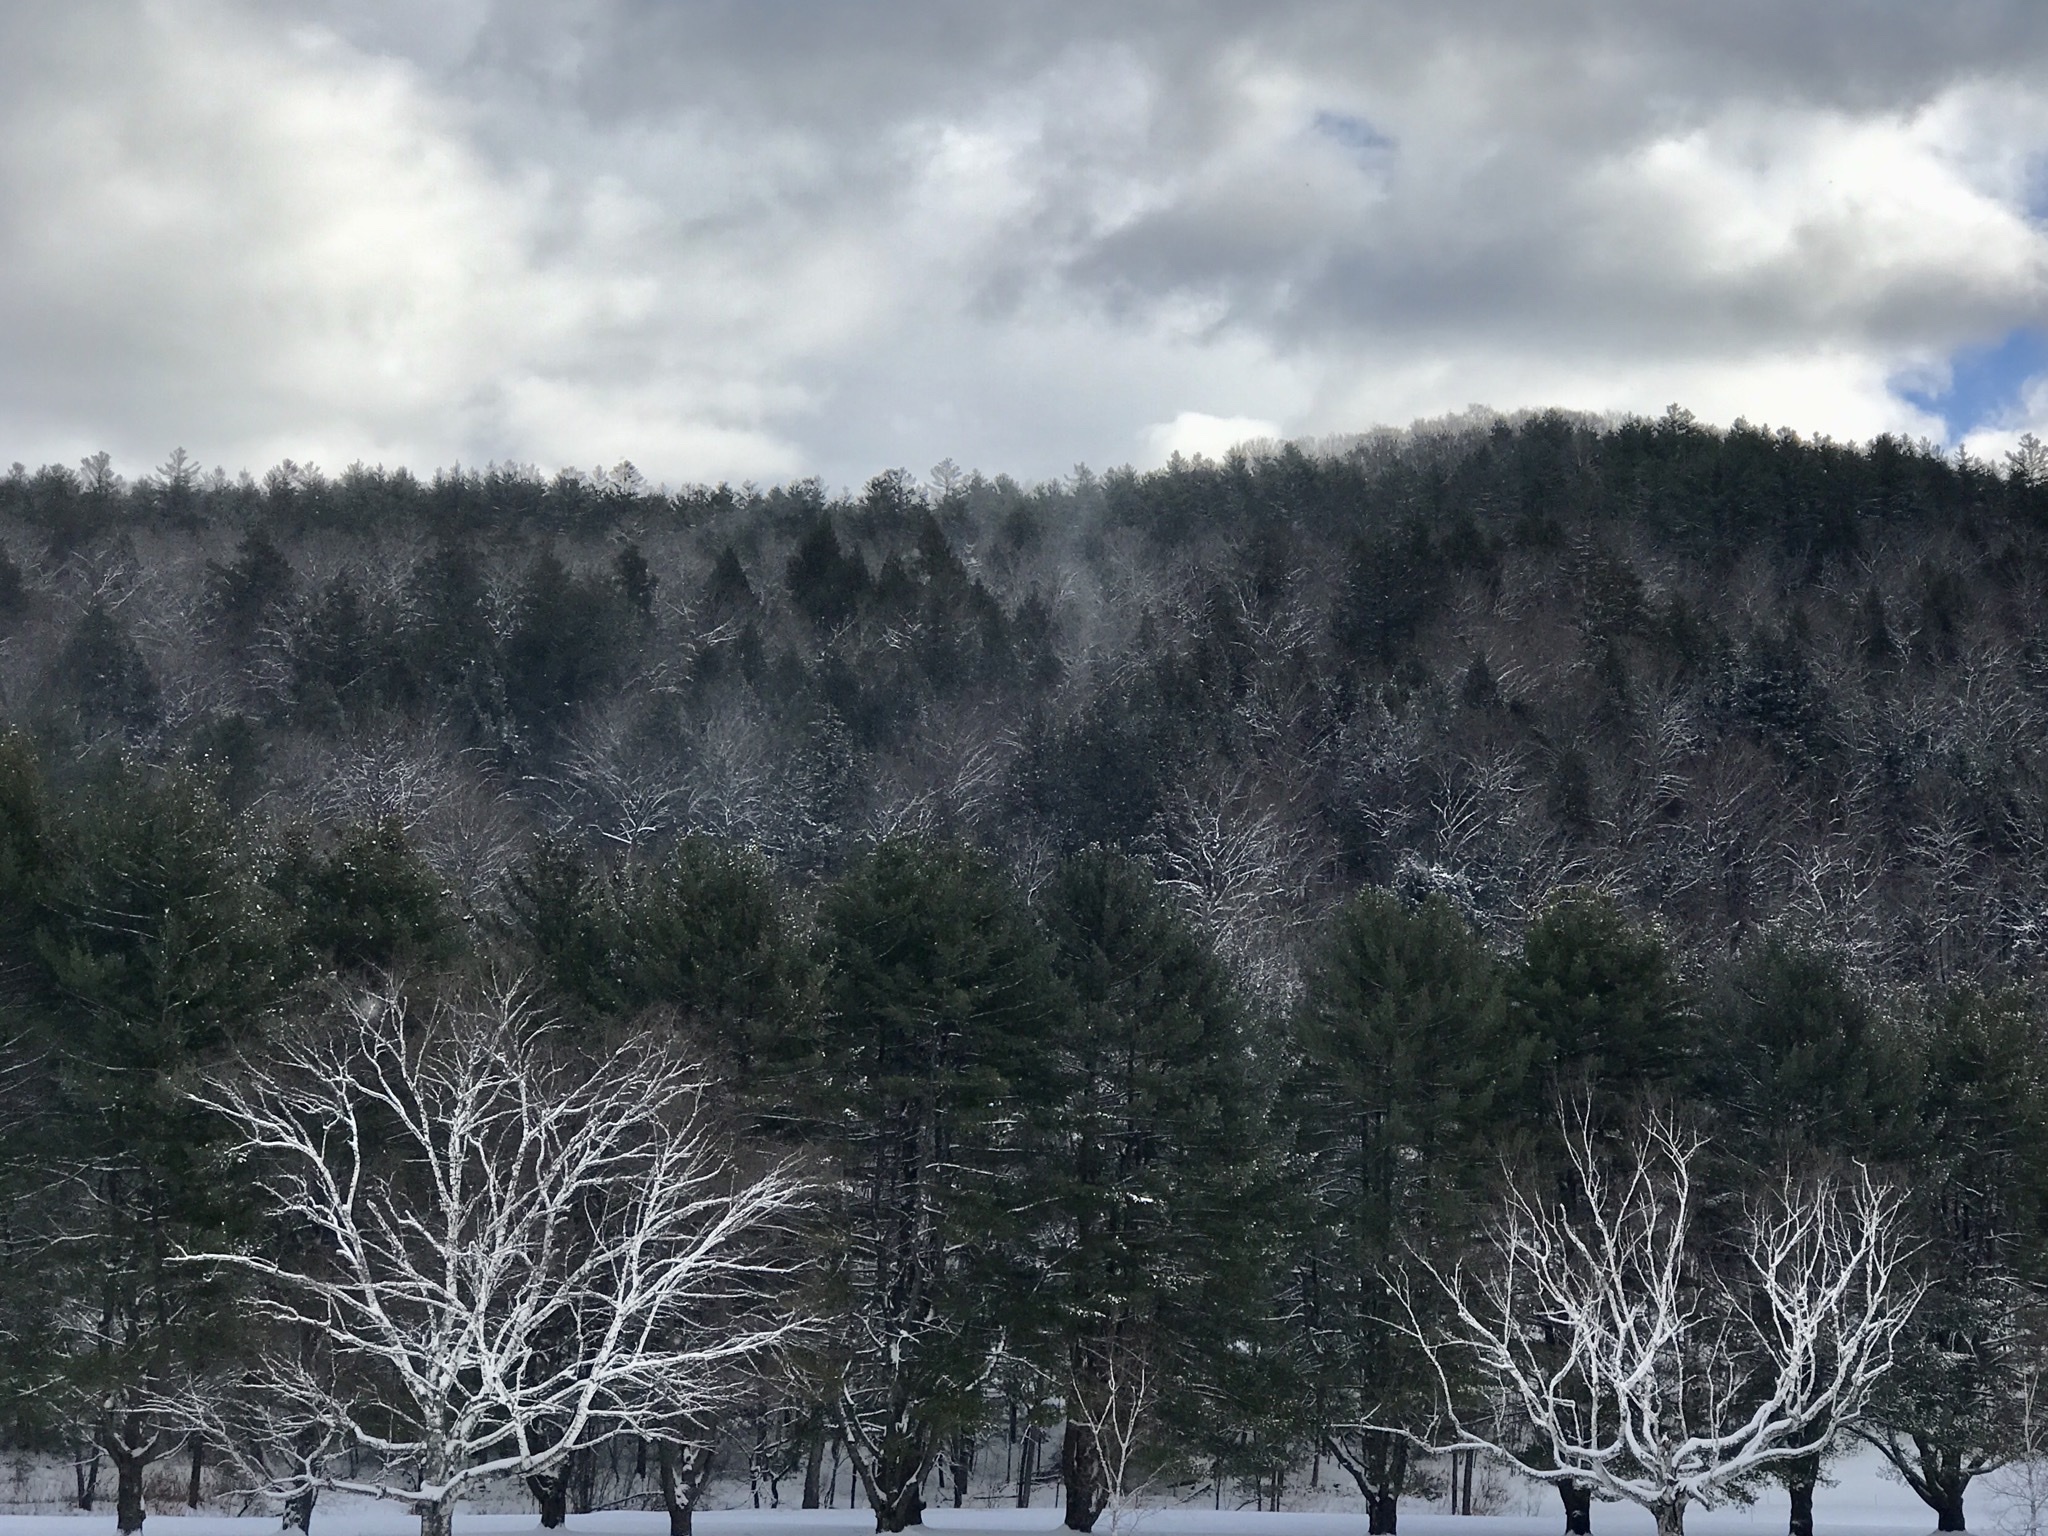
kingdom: Plantae
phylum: Tracheophyta
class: Pinopsida
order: Pinales
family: Pinaceae
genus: Pinus
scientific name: Pinus strobus
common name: Weymouth pine
